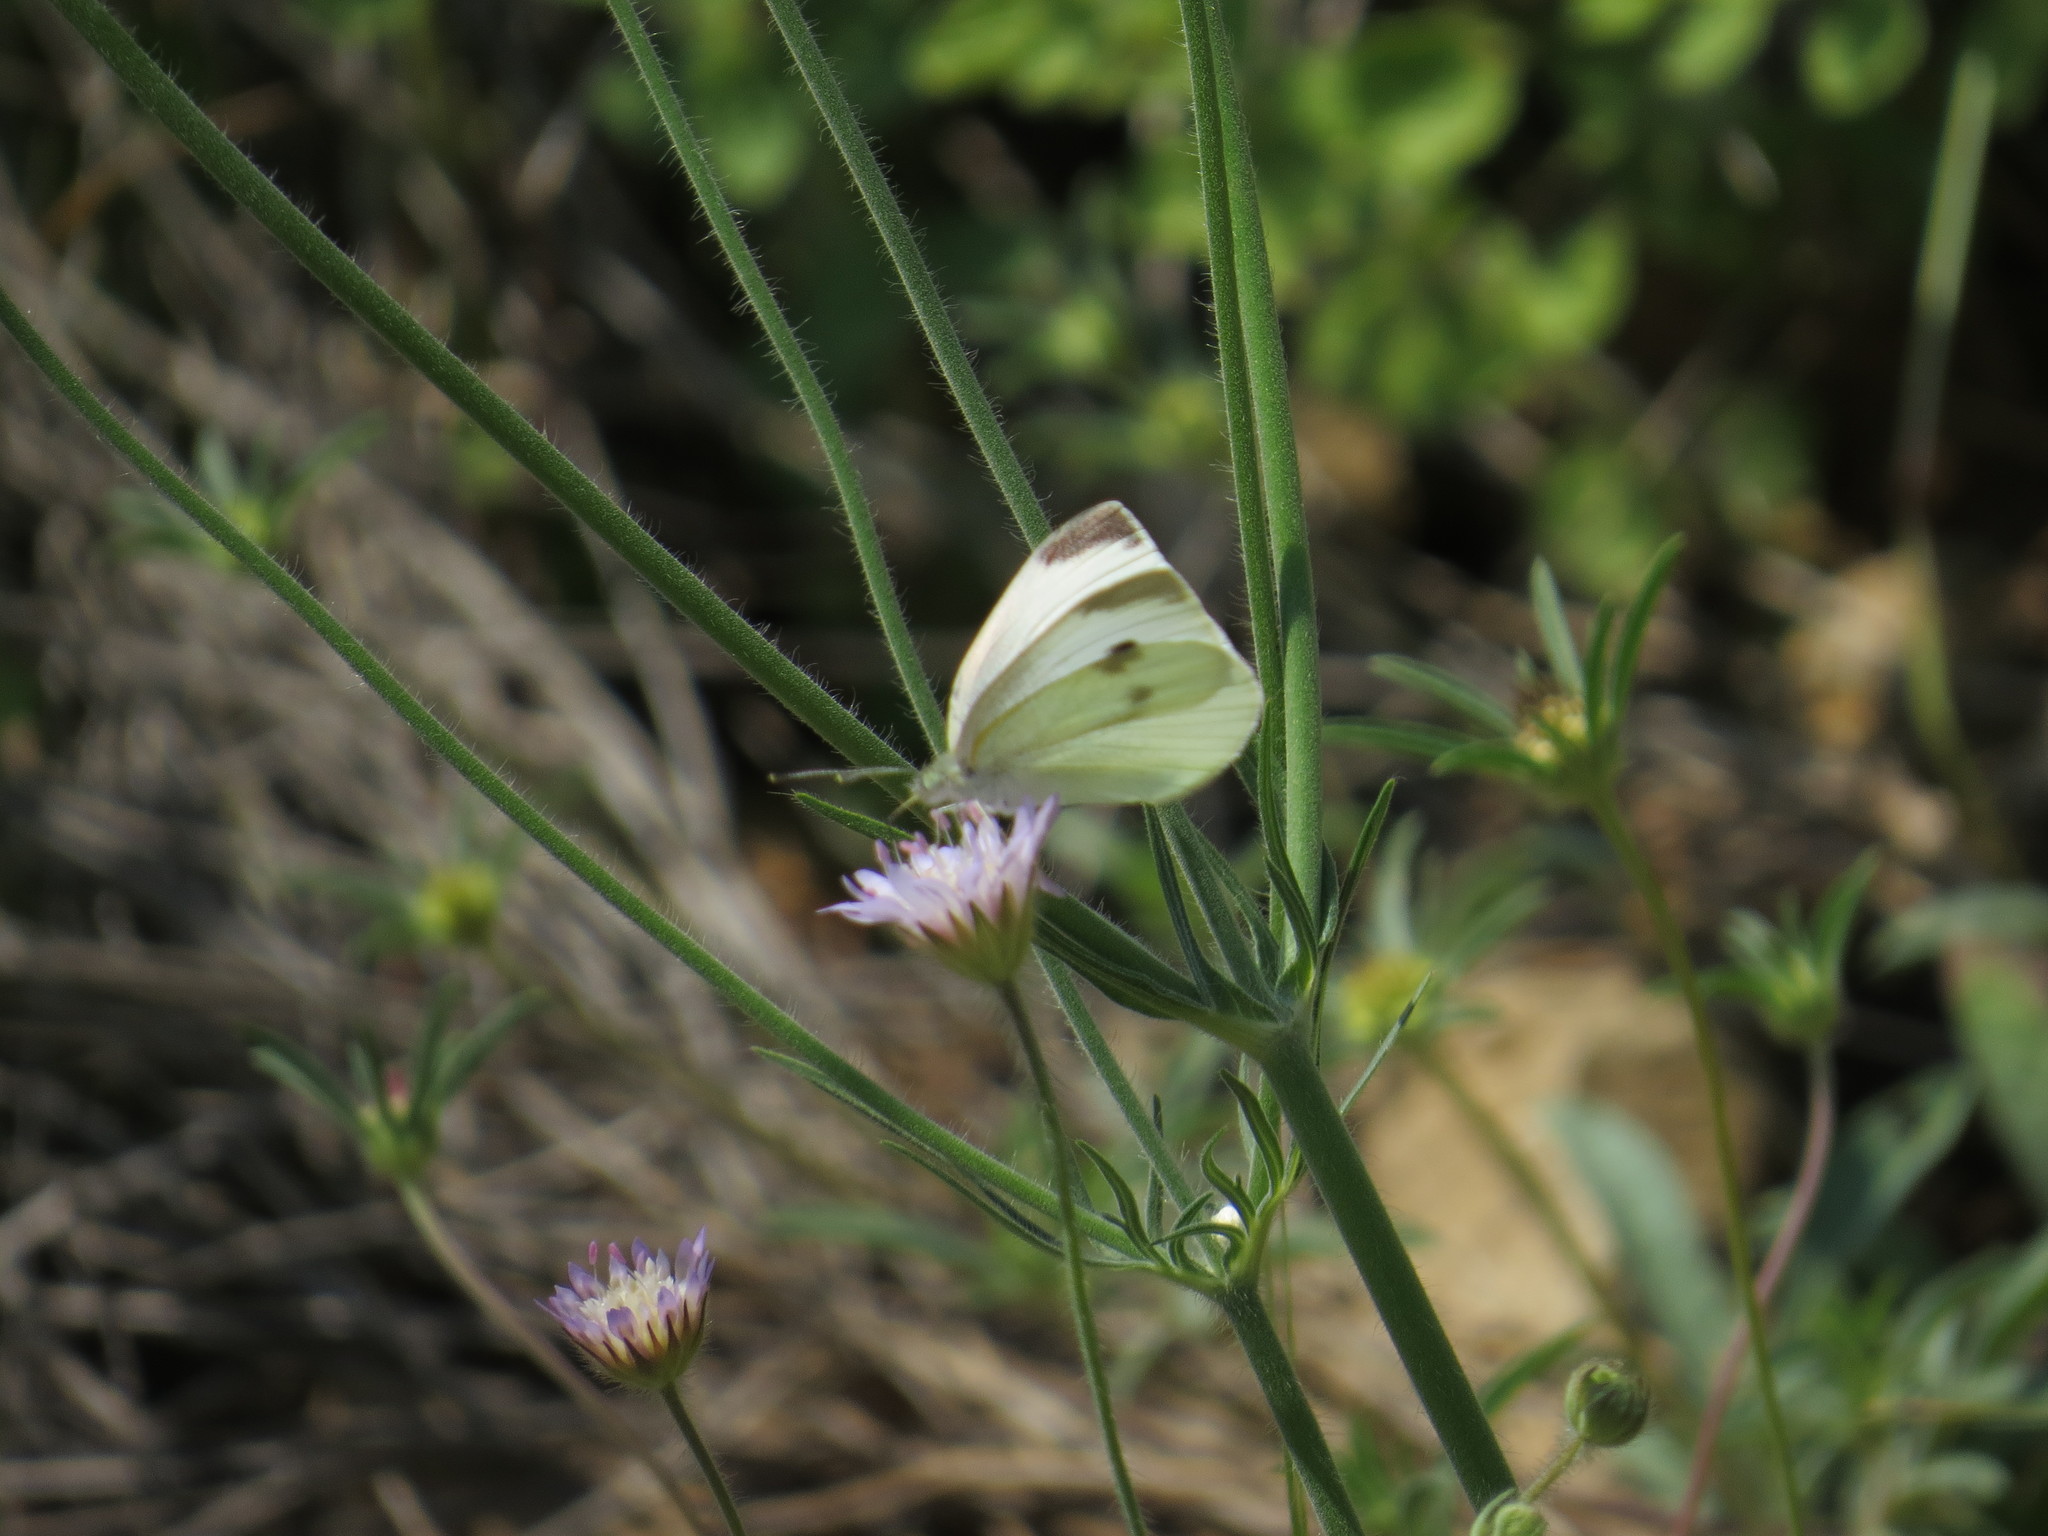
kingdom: Animalia
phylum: Arthropoda
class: Insecta
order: Lepidoptera
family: Pieridae
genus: Pieris
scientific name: Pieris rapae
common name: Small white
